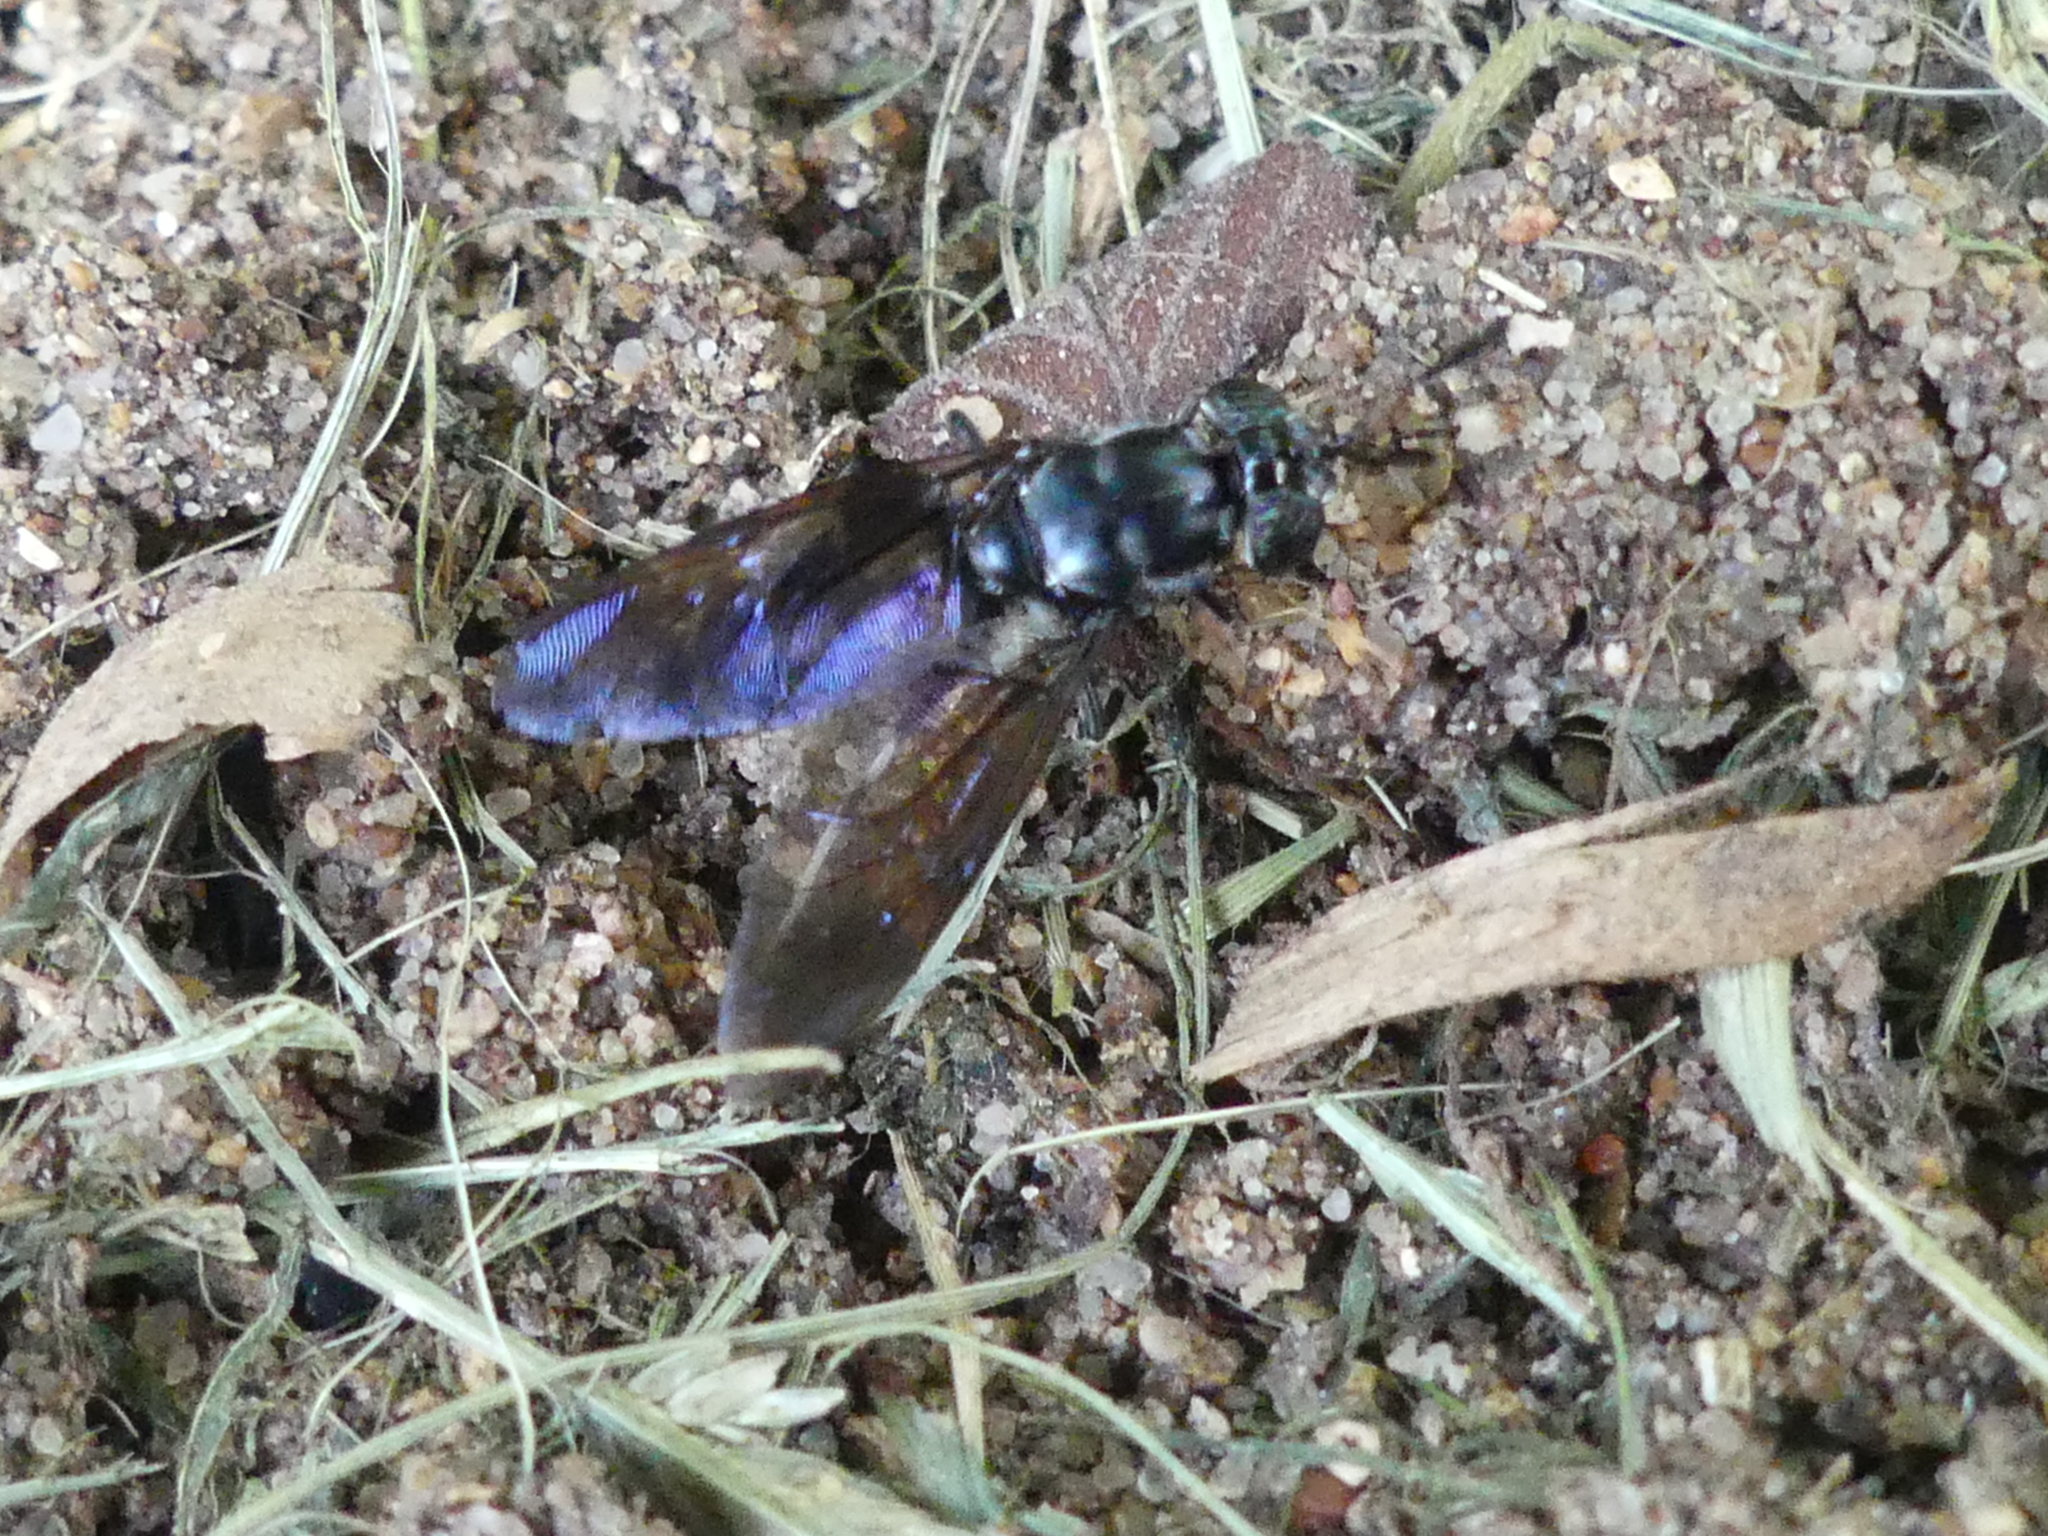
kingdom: Animalia
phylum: Arthropoda
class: Insecta
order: Diptera
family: Stratiomyidae
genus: Hermetia
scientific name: Hermetia illucens
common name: Black soldier fly
